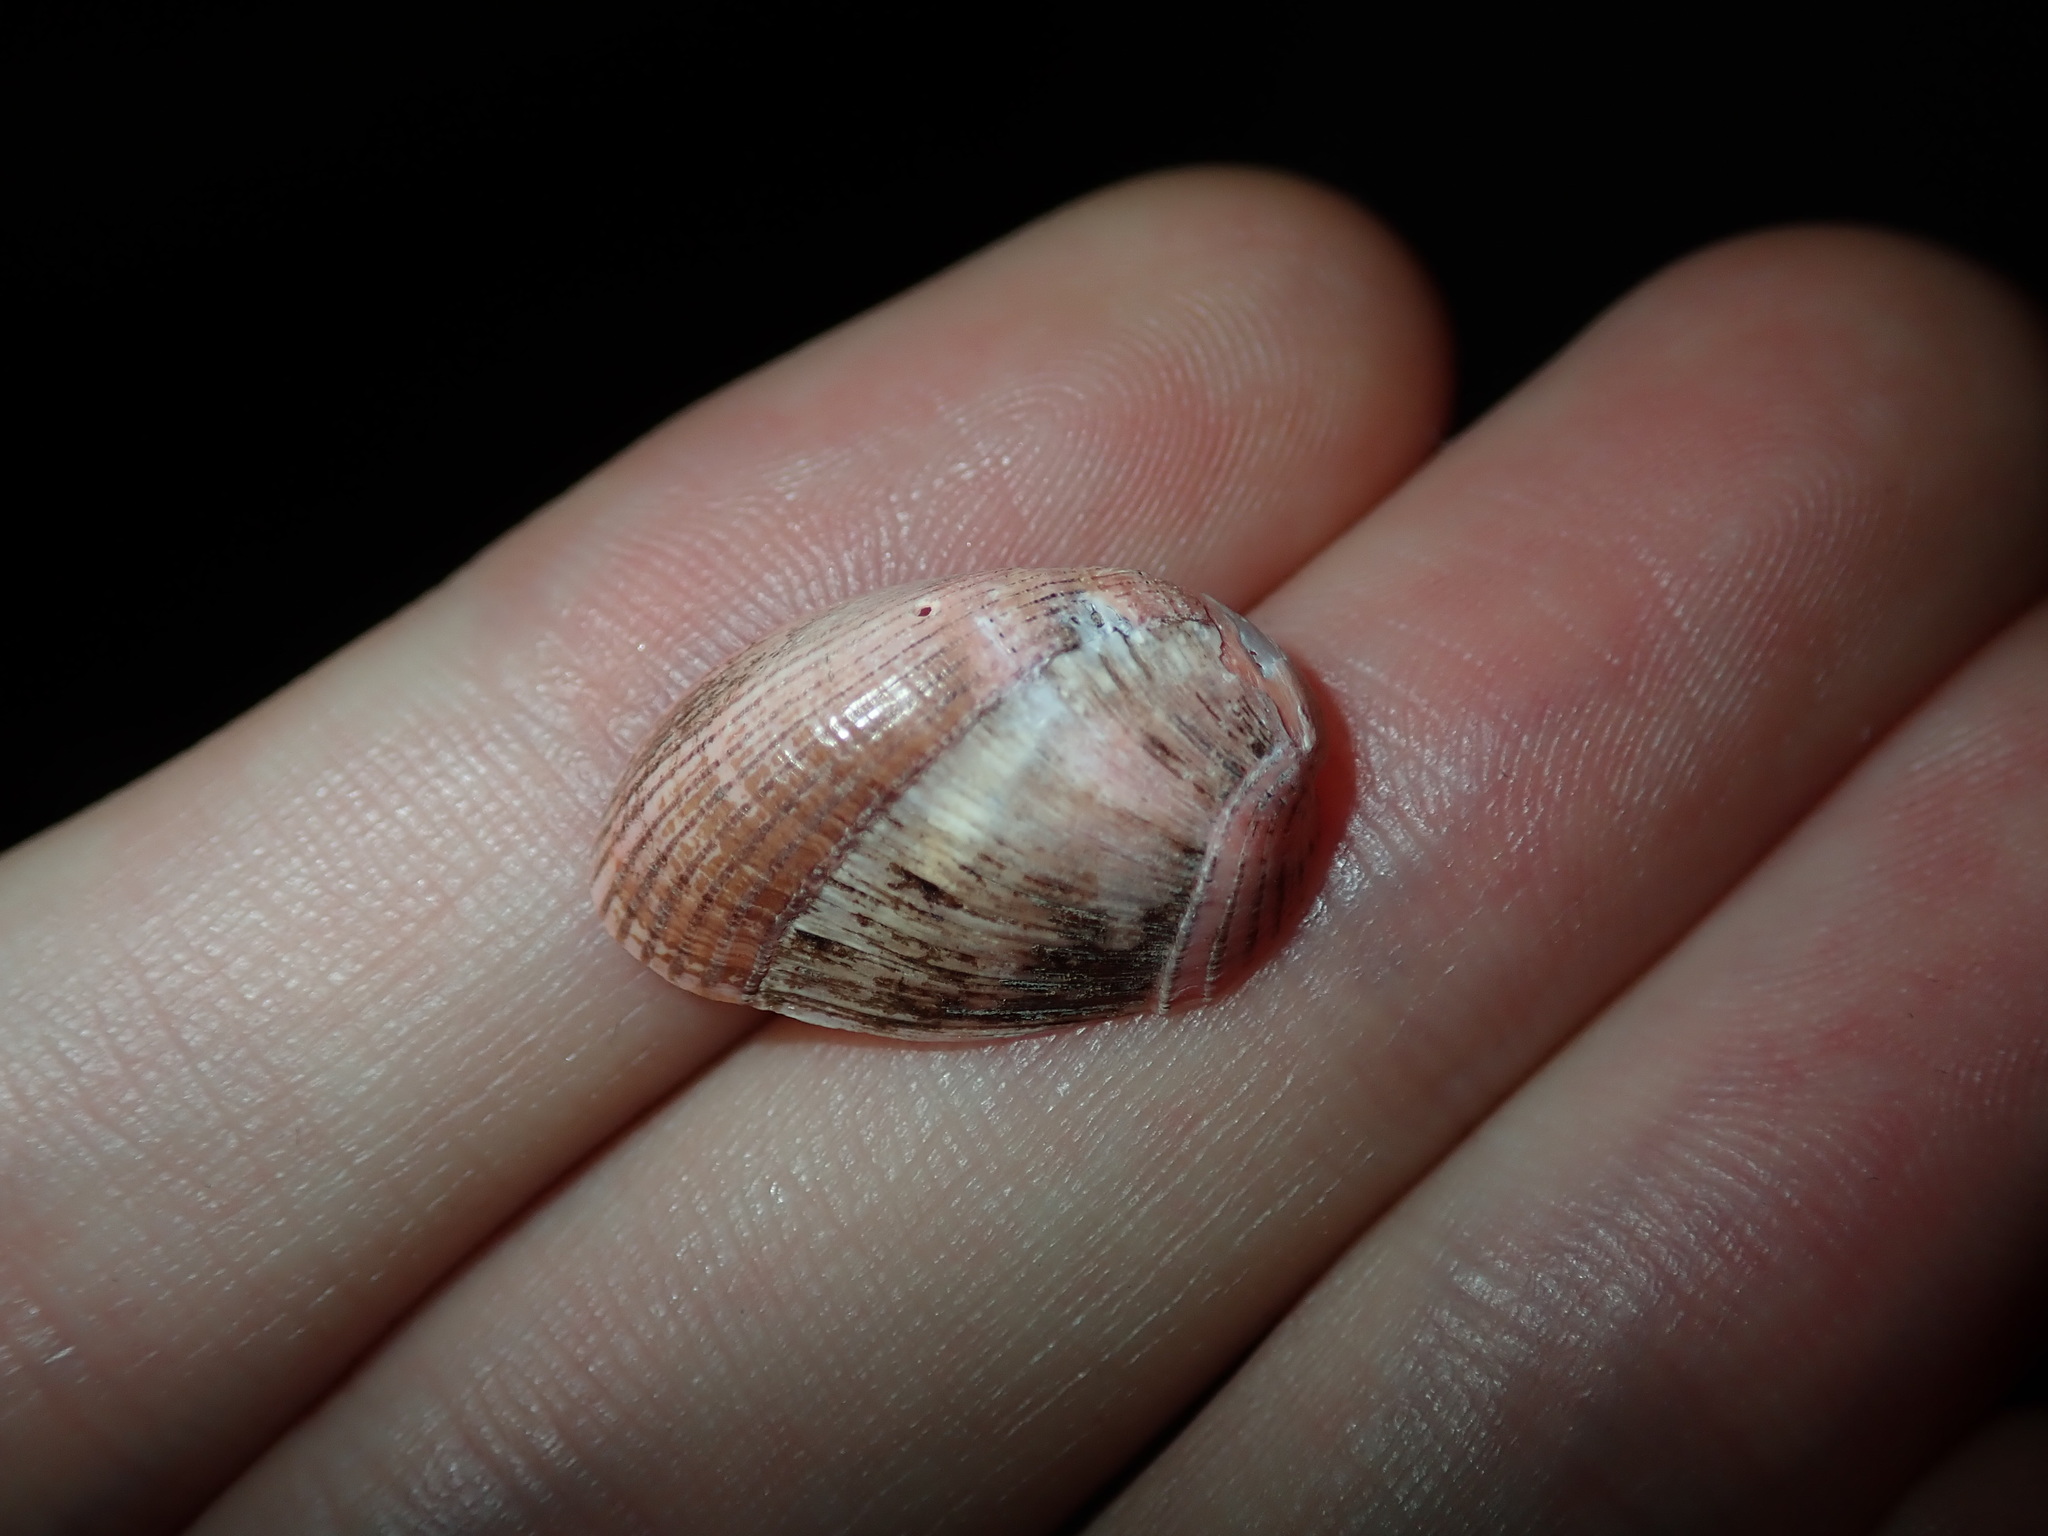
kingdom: Animalia
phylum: Mollusca
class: Bivalvia
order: Mytilida
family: Mytilidae
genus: Musculus
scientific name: Musculus impactus
